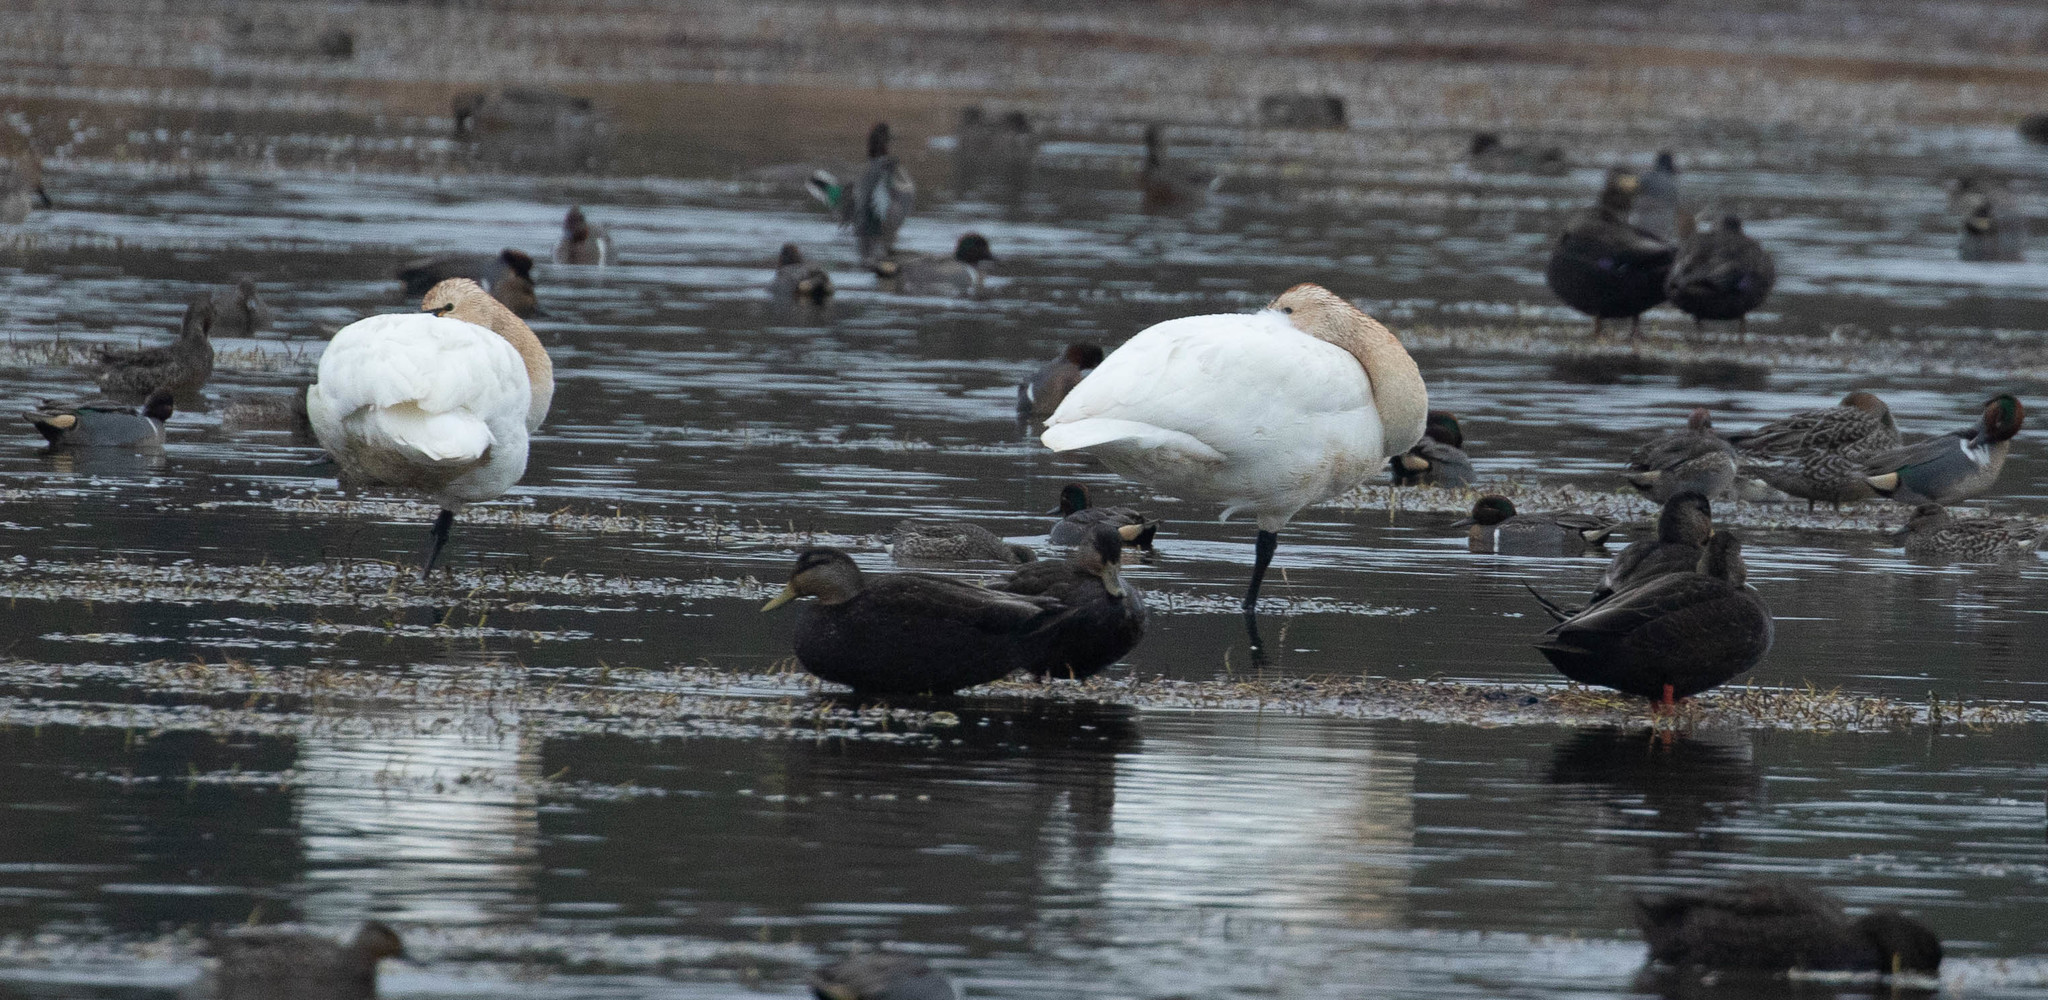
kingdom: Animalia
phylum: Chordata
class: Aves
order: Anseriformes
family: Anatidae
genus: Cygnus
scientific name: Cygnus columbianus
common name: Tundra swan
